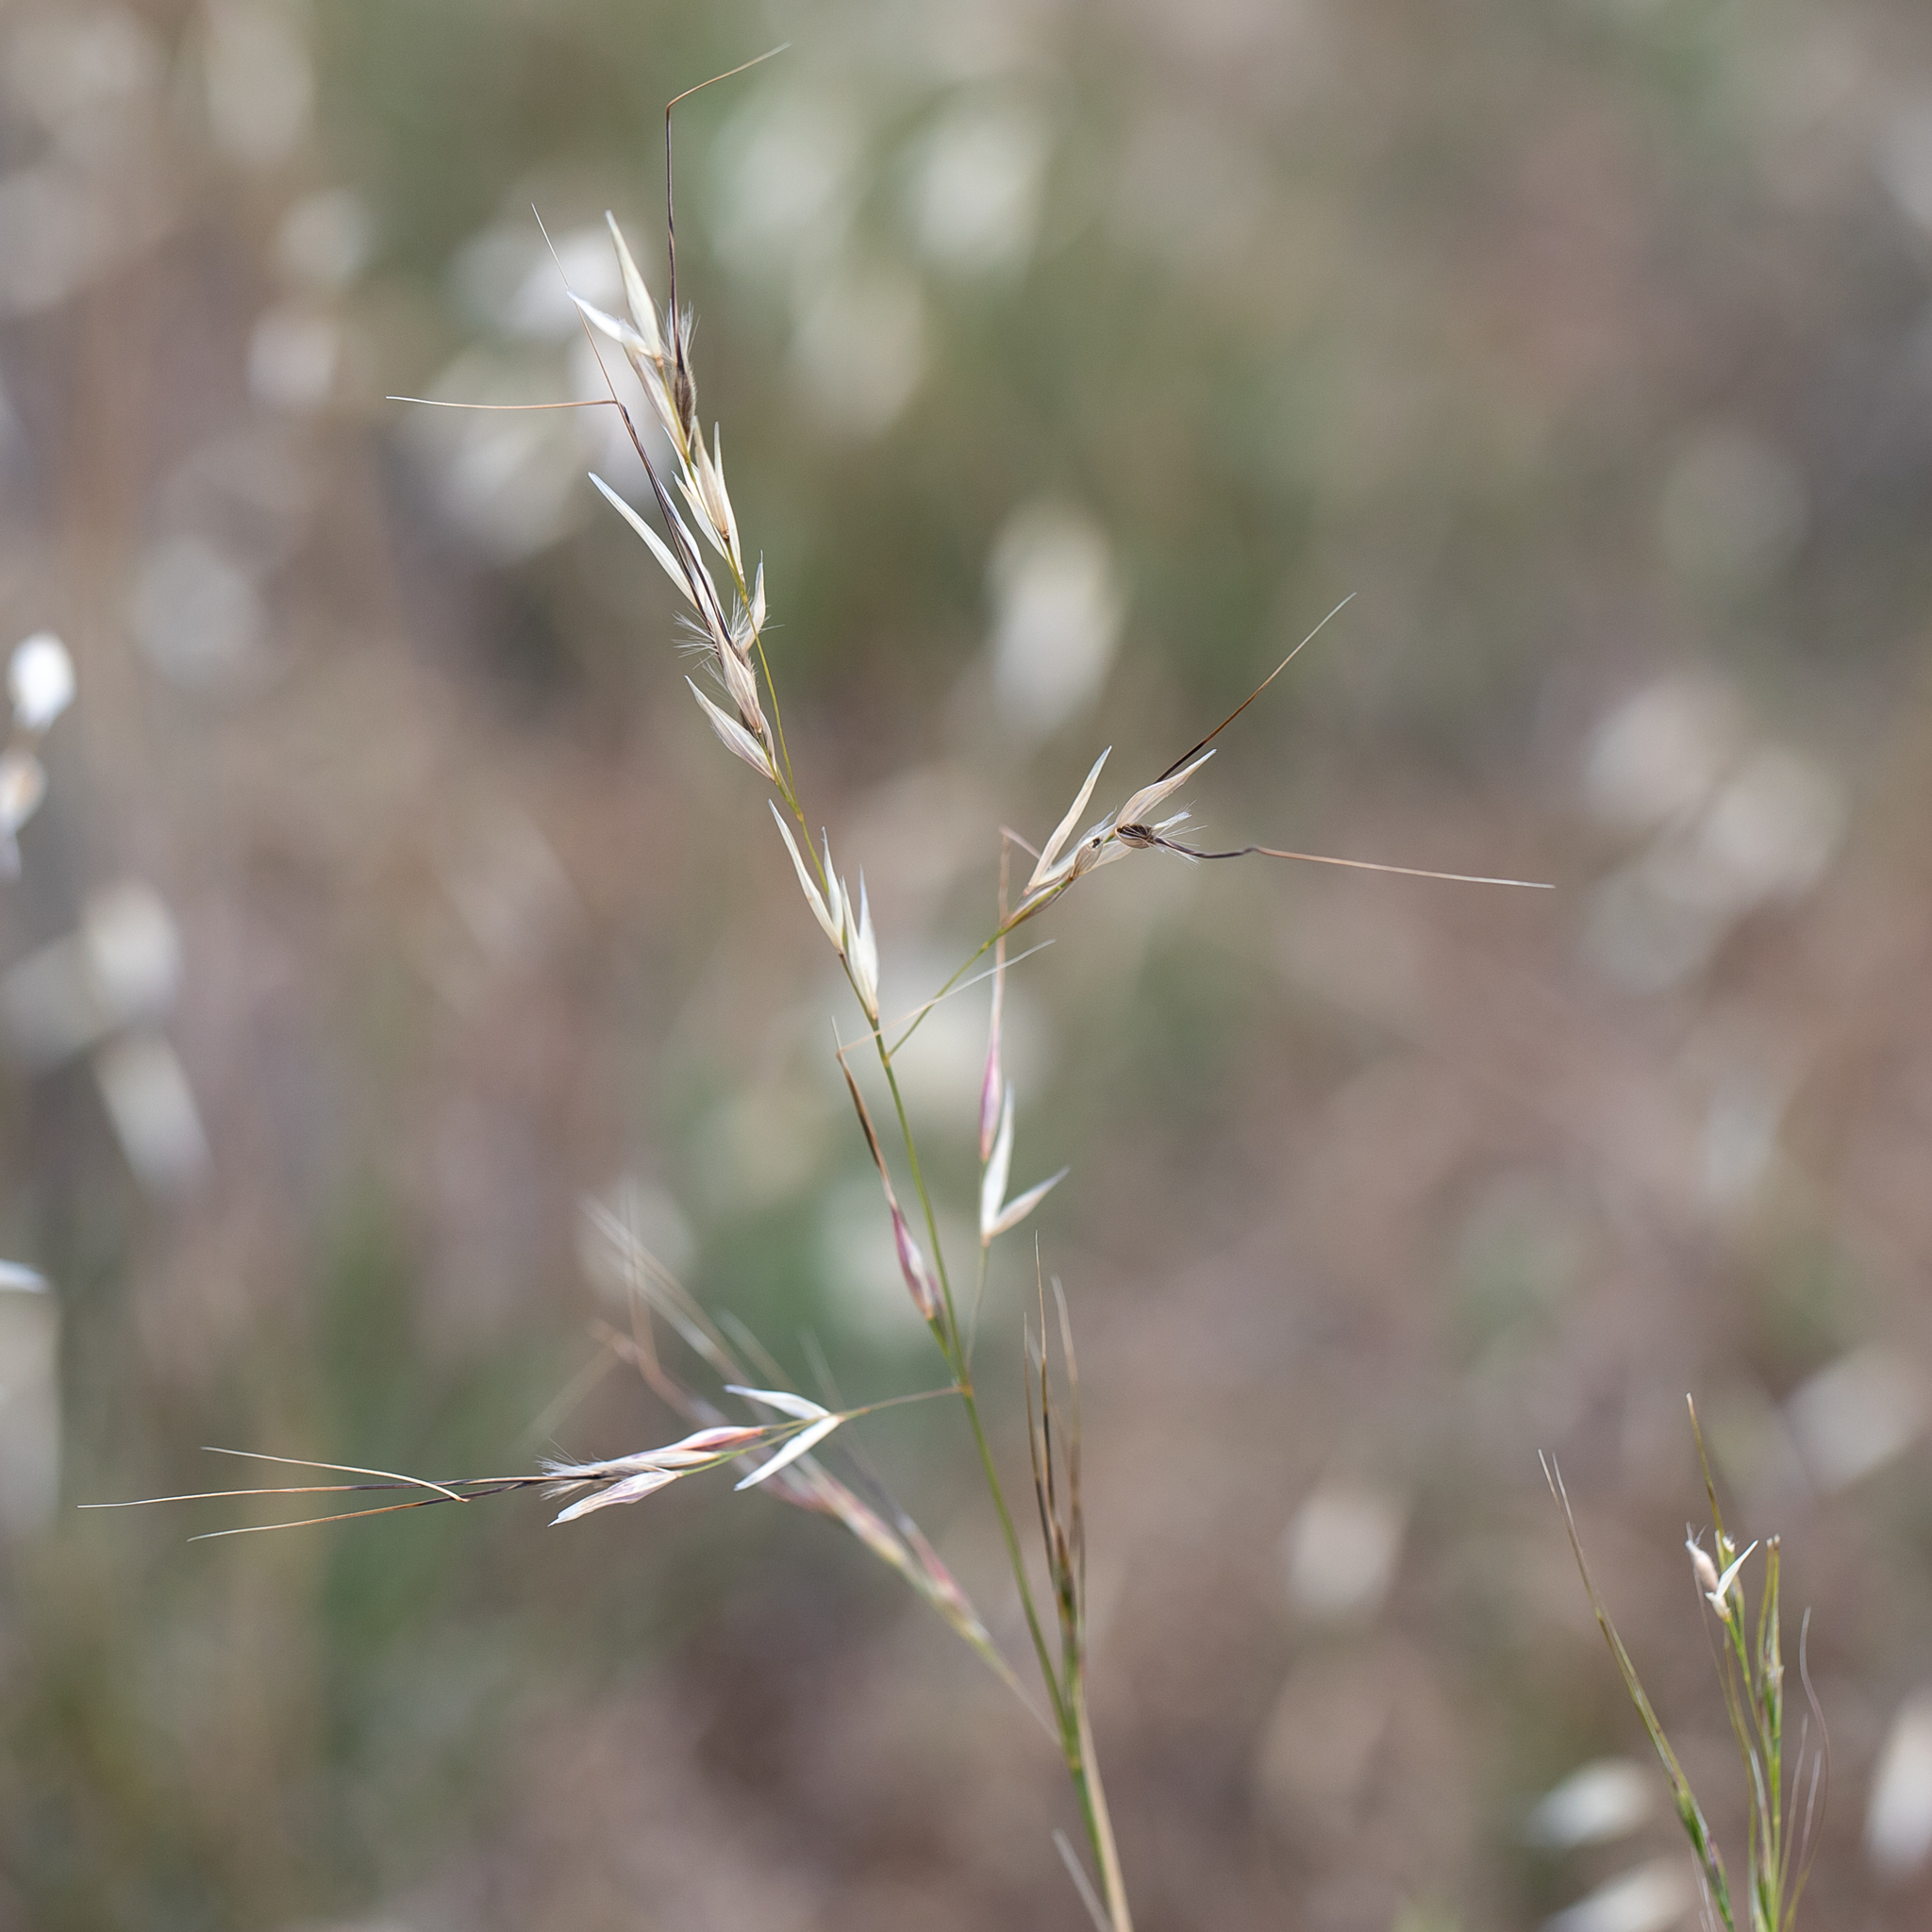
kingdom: Plantae
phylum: Tracheophyta
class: Liliopsida
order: Poales
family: Poaceae
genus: Austrostipa
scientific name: Austrostipa blackii
